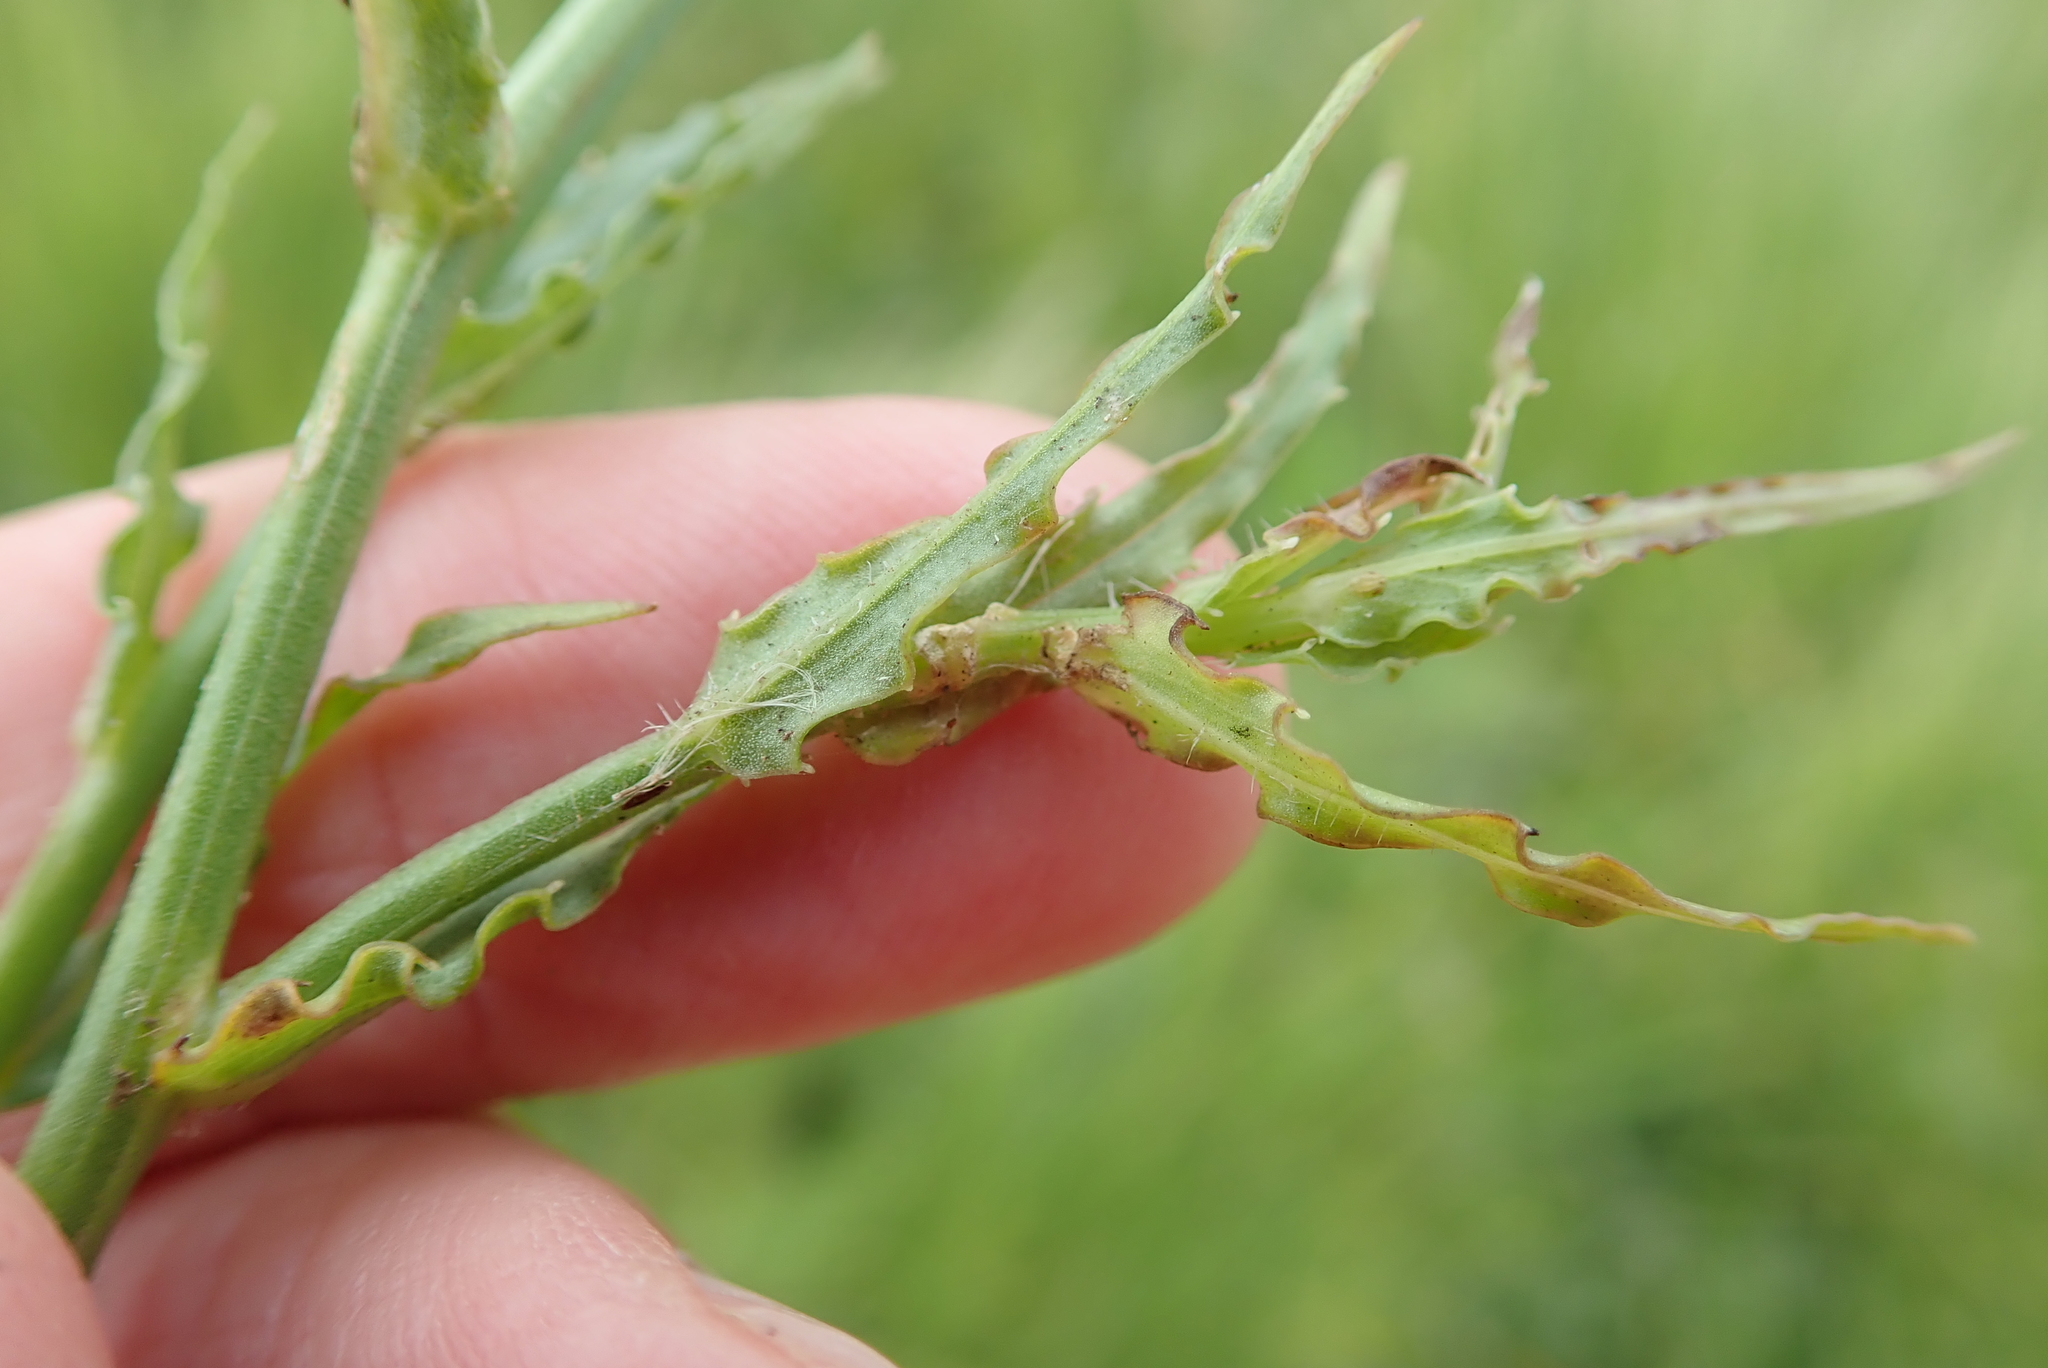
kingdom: Plantae
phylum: Tracheophyta
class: Magnoliopsida
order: Asterales
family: Campanulaceae
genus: Wahlenbergia
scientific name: Wahlenbergia krebsii
